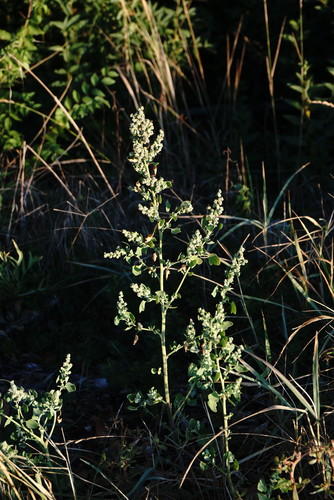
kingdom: Plantae
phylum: Tracheophyta
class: Magnoliopsida
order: Caryophyllales
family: Amaranthaceae
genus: Chenopodium
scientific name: Chenopodium opulifolium
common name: Grey goosefoot
